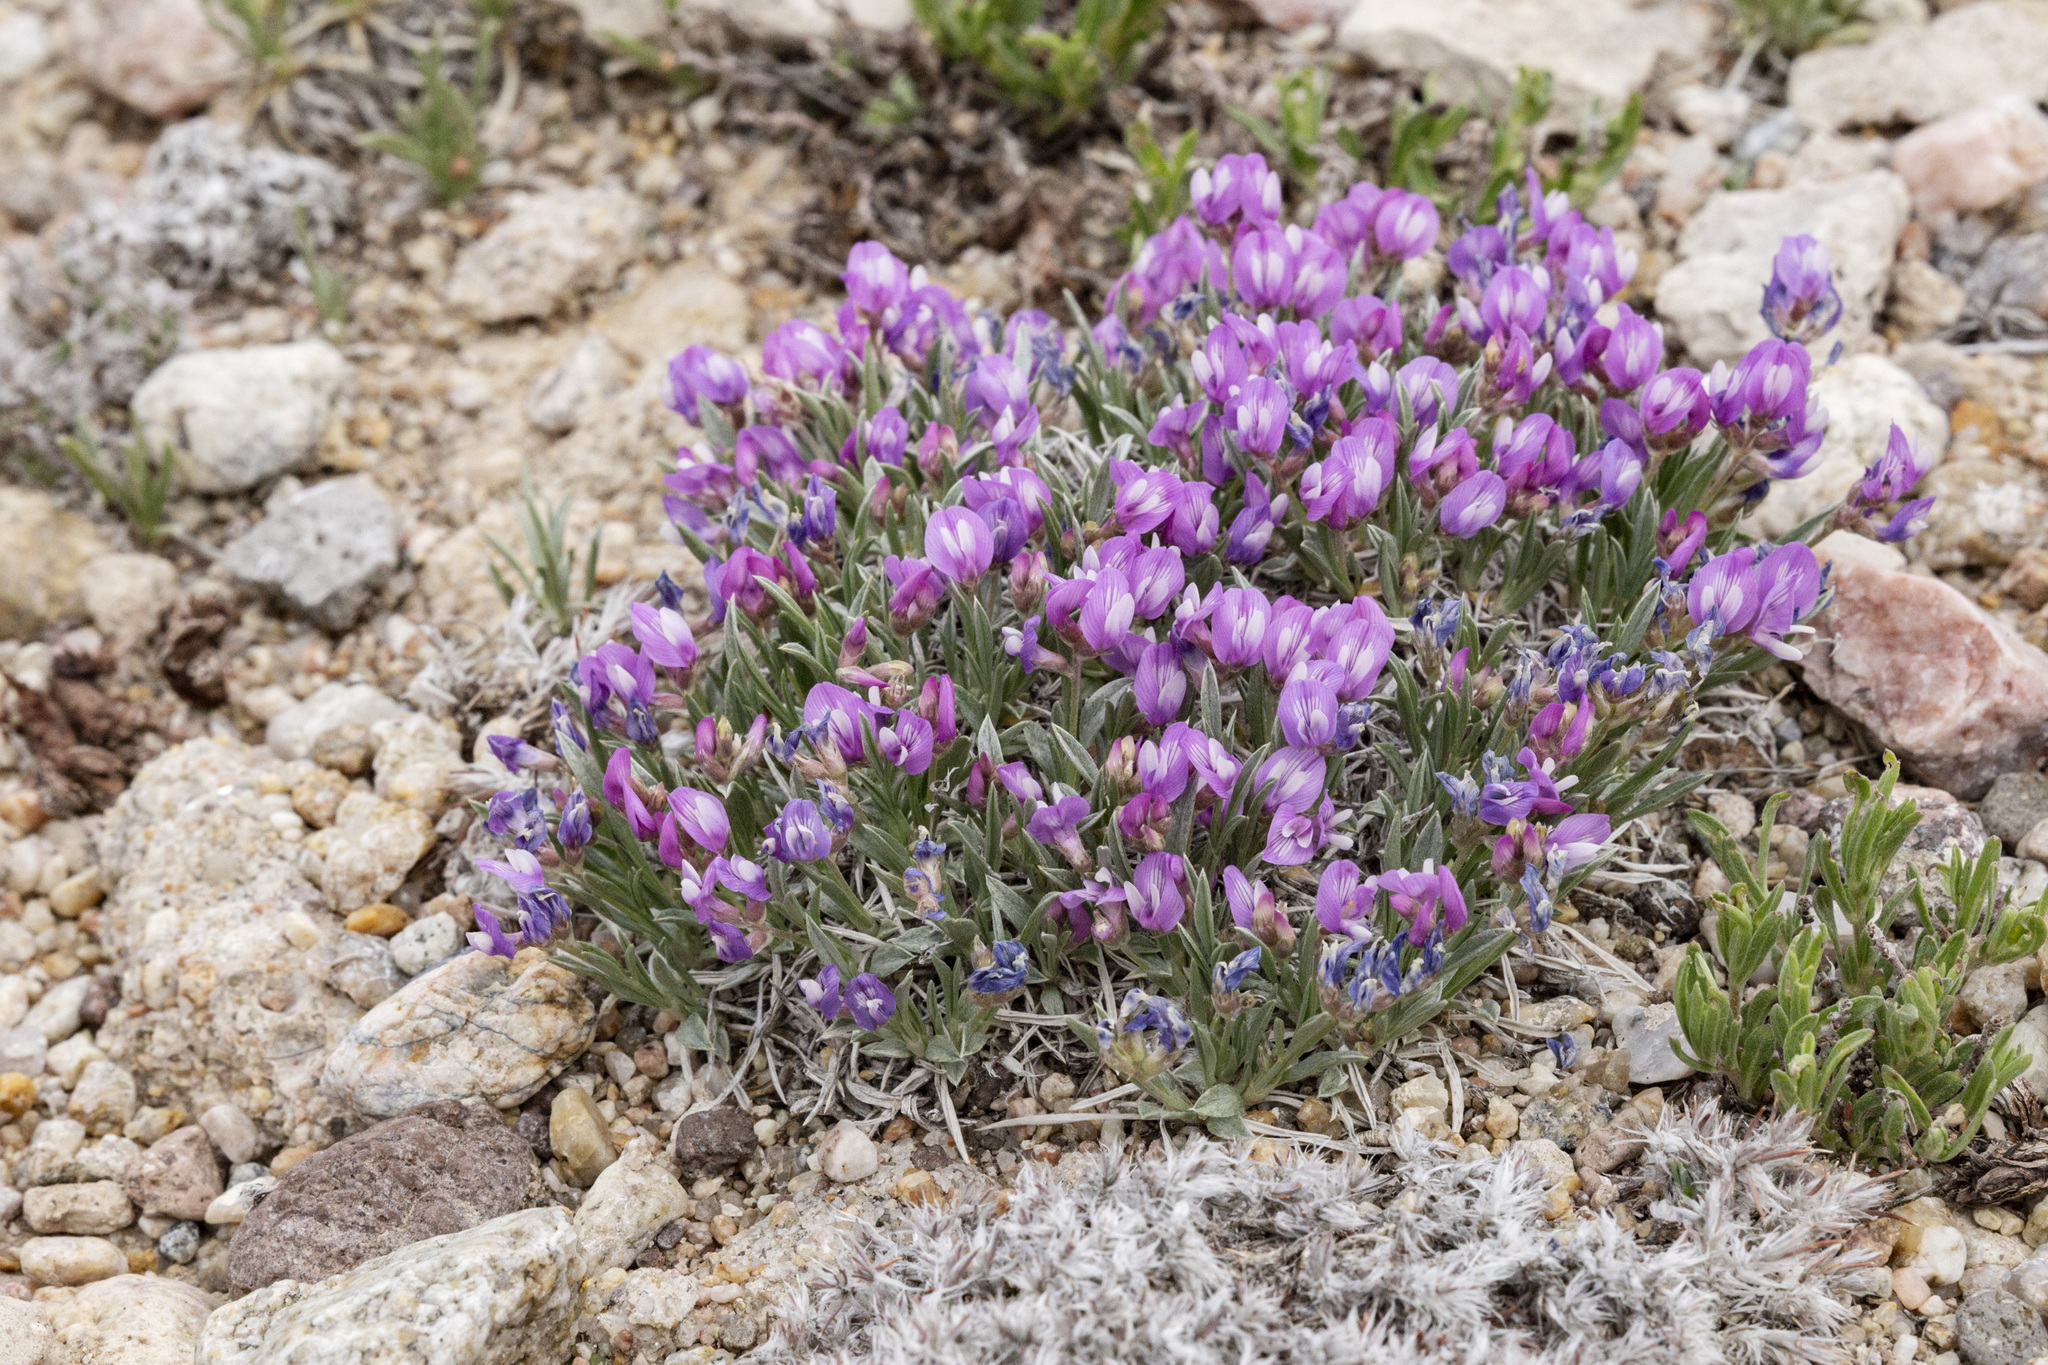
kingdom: Plantae
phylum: Tracheophyta
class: Magnoliopsida
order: Fabales
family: Fabaceae
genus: Astragalus
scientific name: Astragalus spatulatus
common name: Draba milk-vetch
